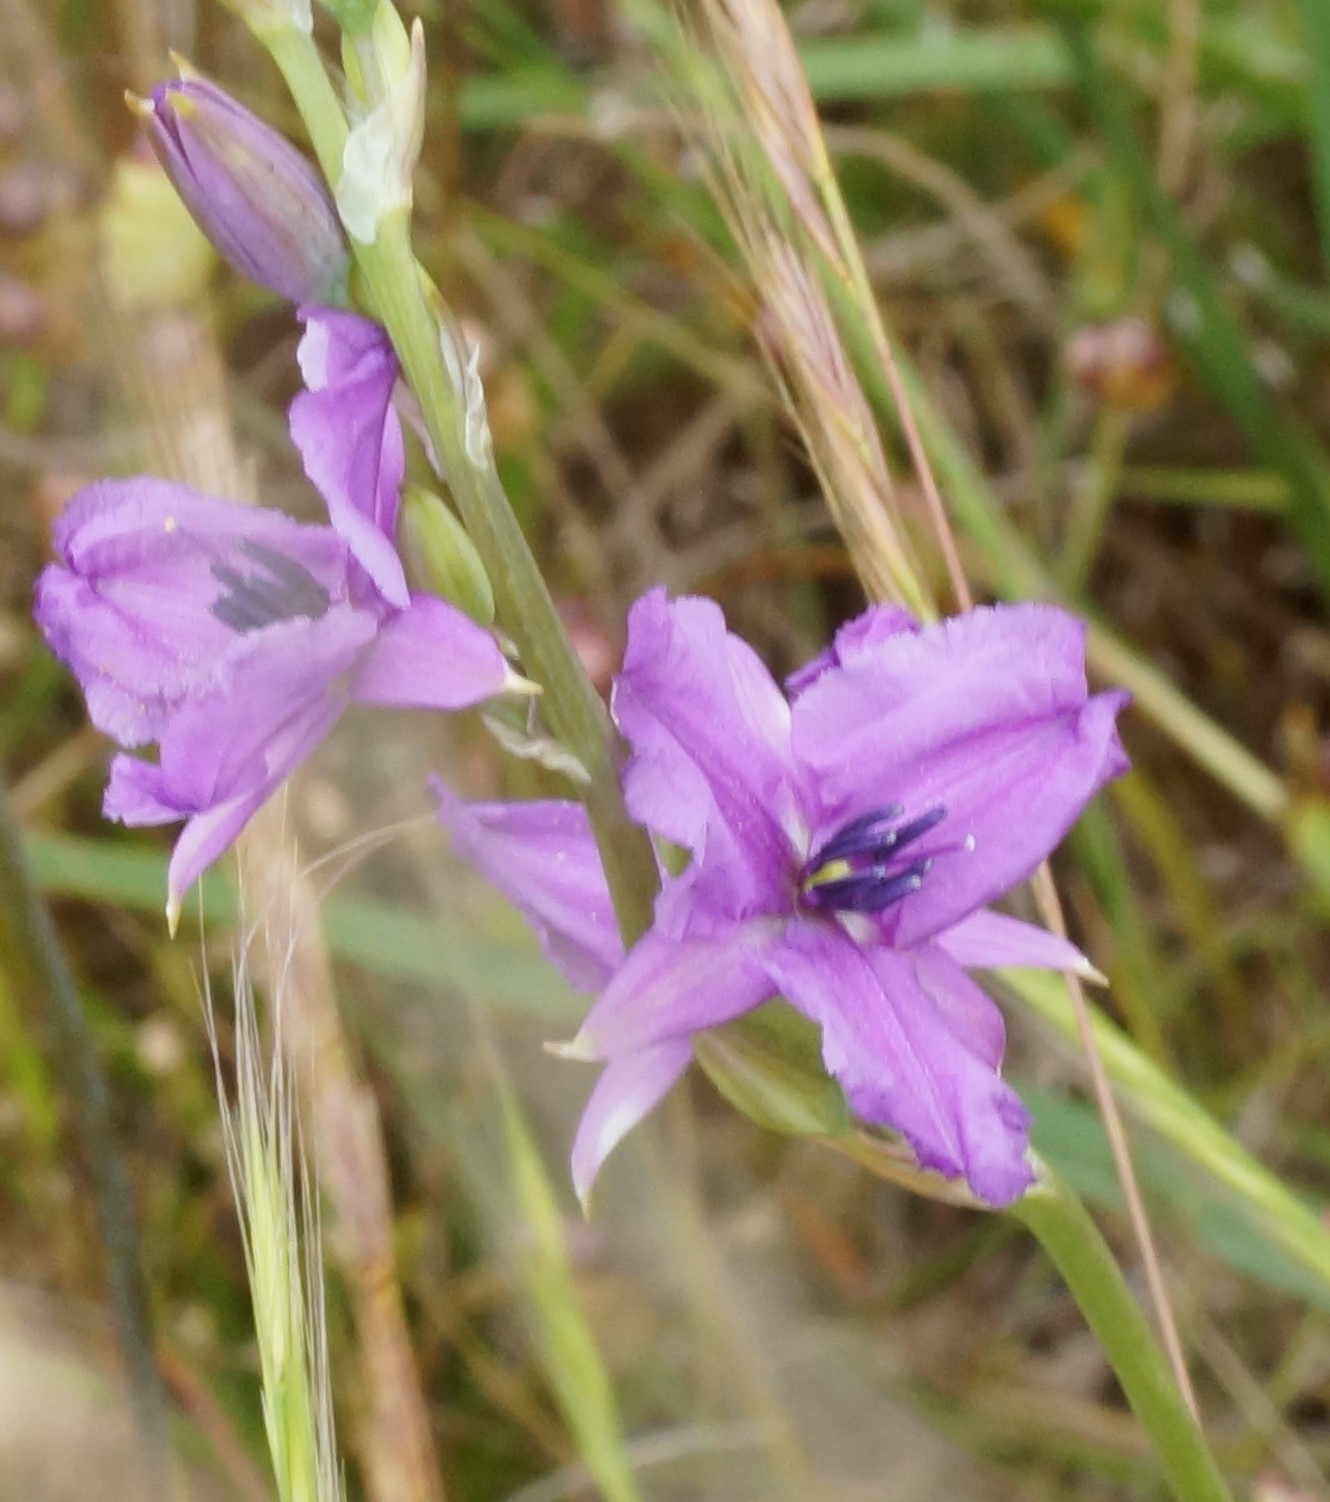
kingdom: Plantae
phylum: Tracheophyta
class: Liliopsida
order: Asparagales
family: Asparagaceae
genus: Arthropodium
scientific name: Arthropodium strictum
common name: Chocolate-lily
